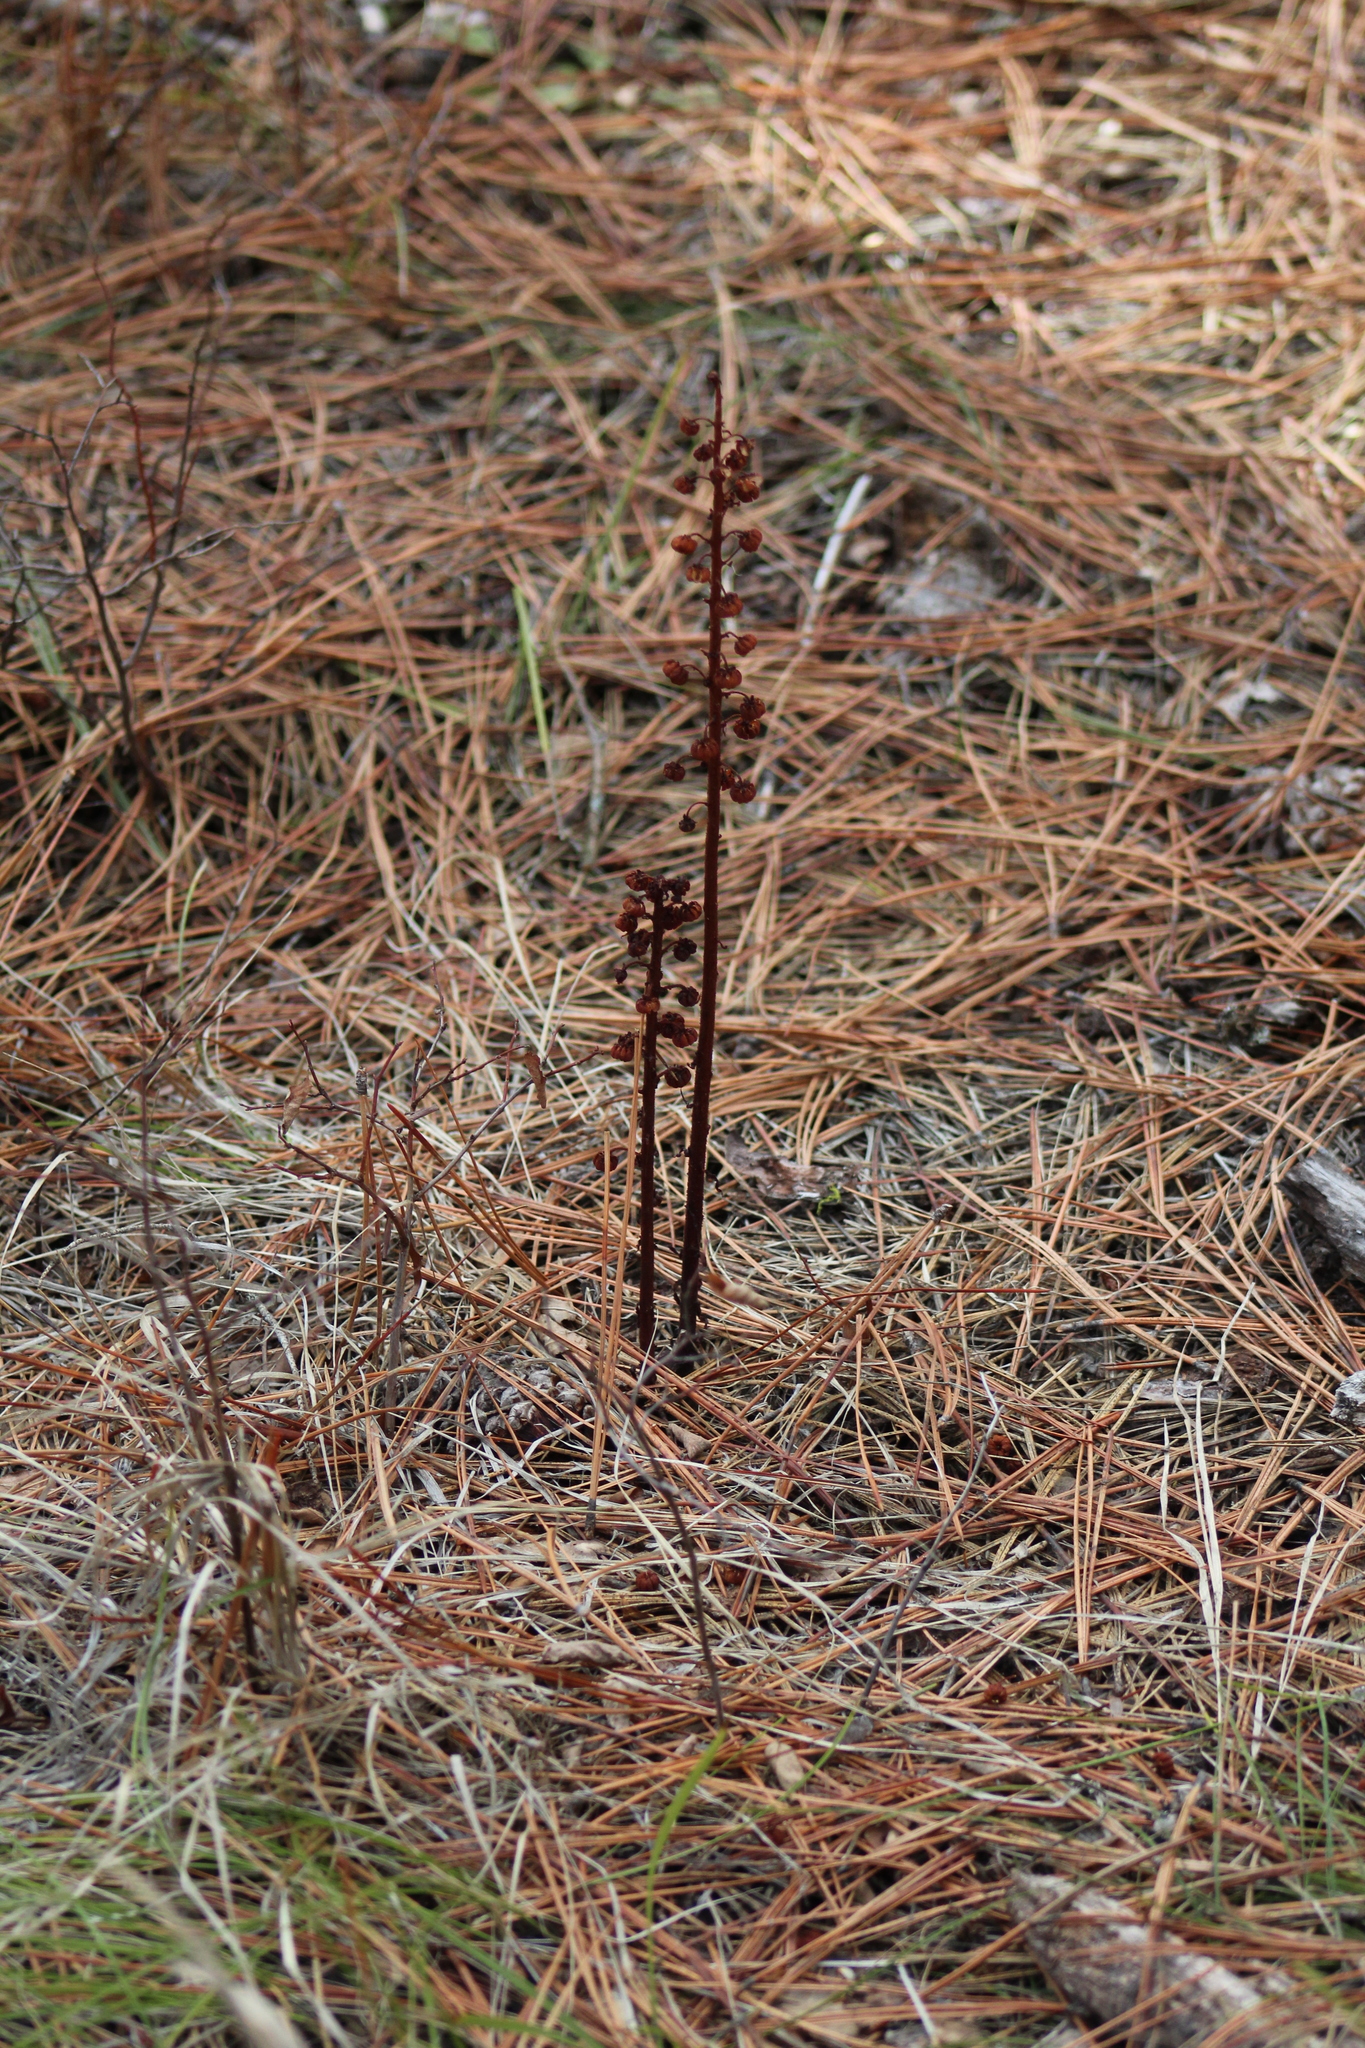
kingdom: Plantae
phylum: Tracheophyta
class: Magnoliopsida
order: Ericales
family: Ericaceae
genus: Pterospora
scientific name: Pterospora andromedea
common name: Giant bird's-nest
